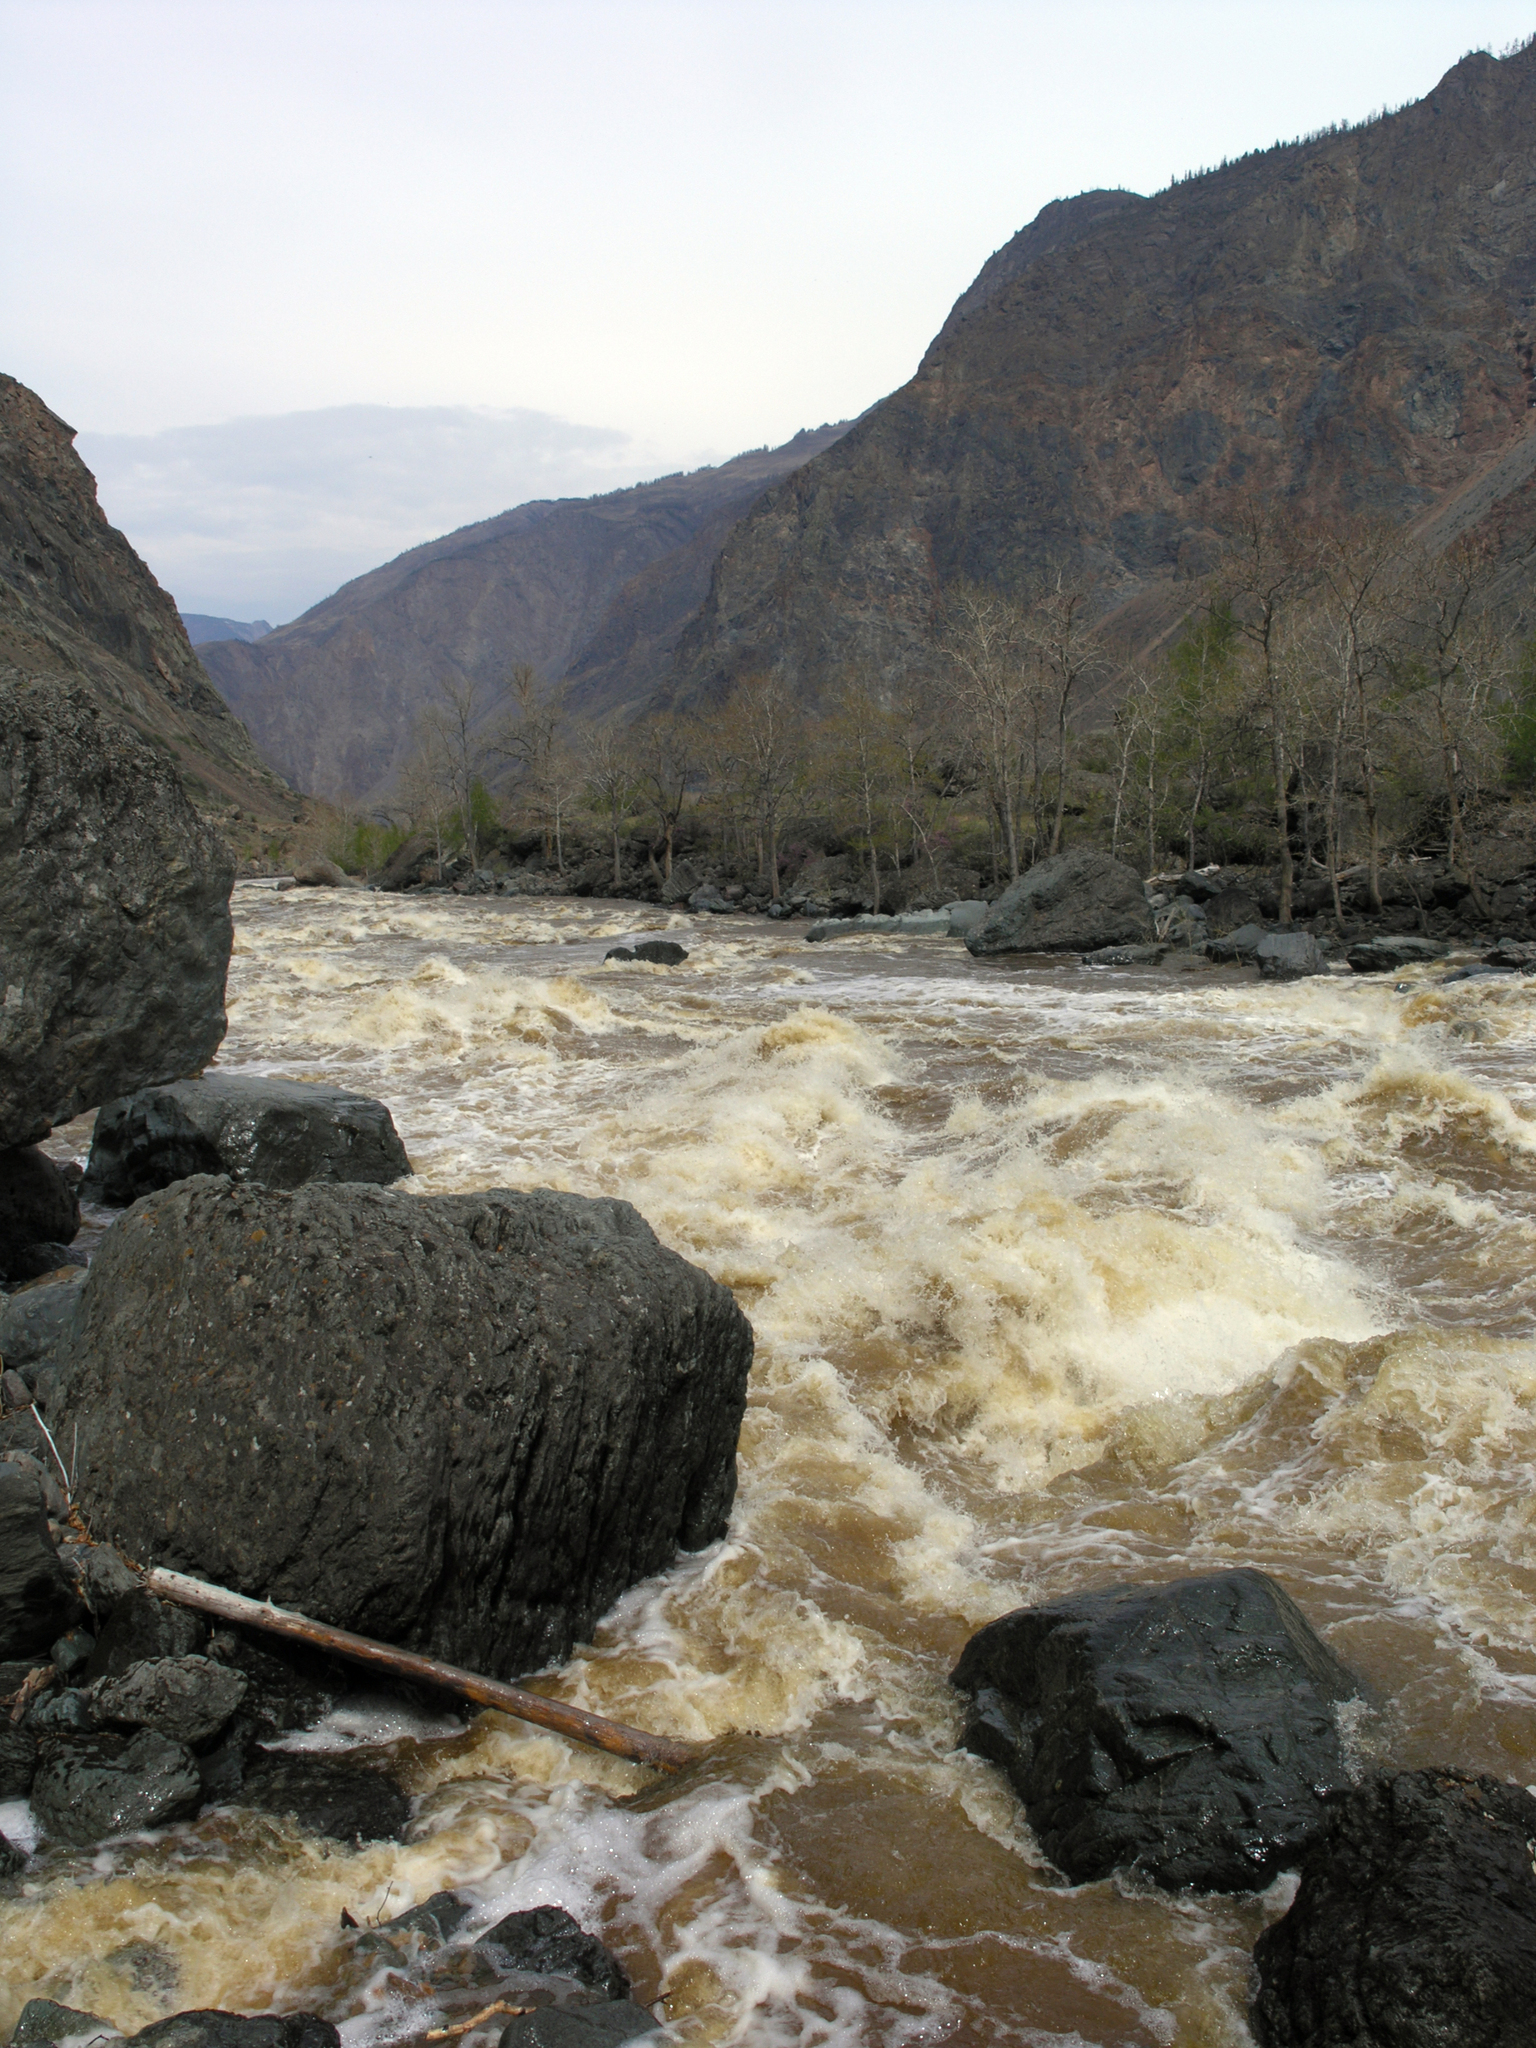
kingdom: Plantae
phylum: Tracheophyta
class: Magnoliopsida
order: Malpighiales
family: Salicaceae
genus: Populus
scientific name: Populus laurifolia
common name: Laurel-leaf poplar
